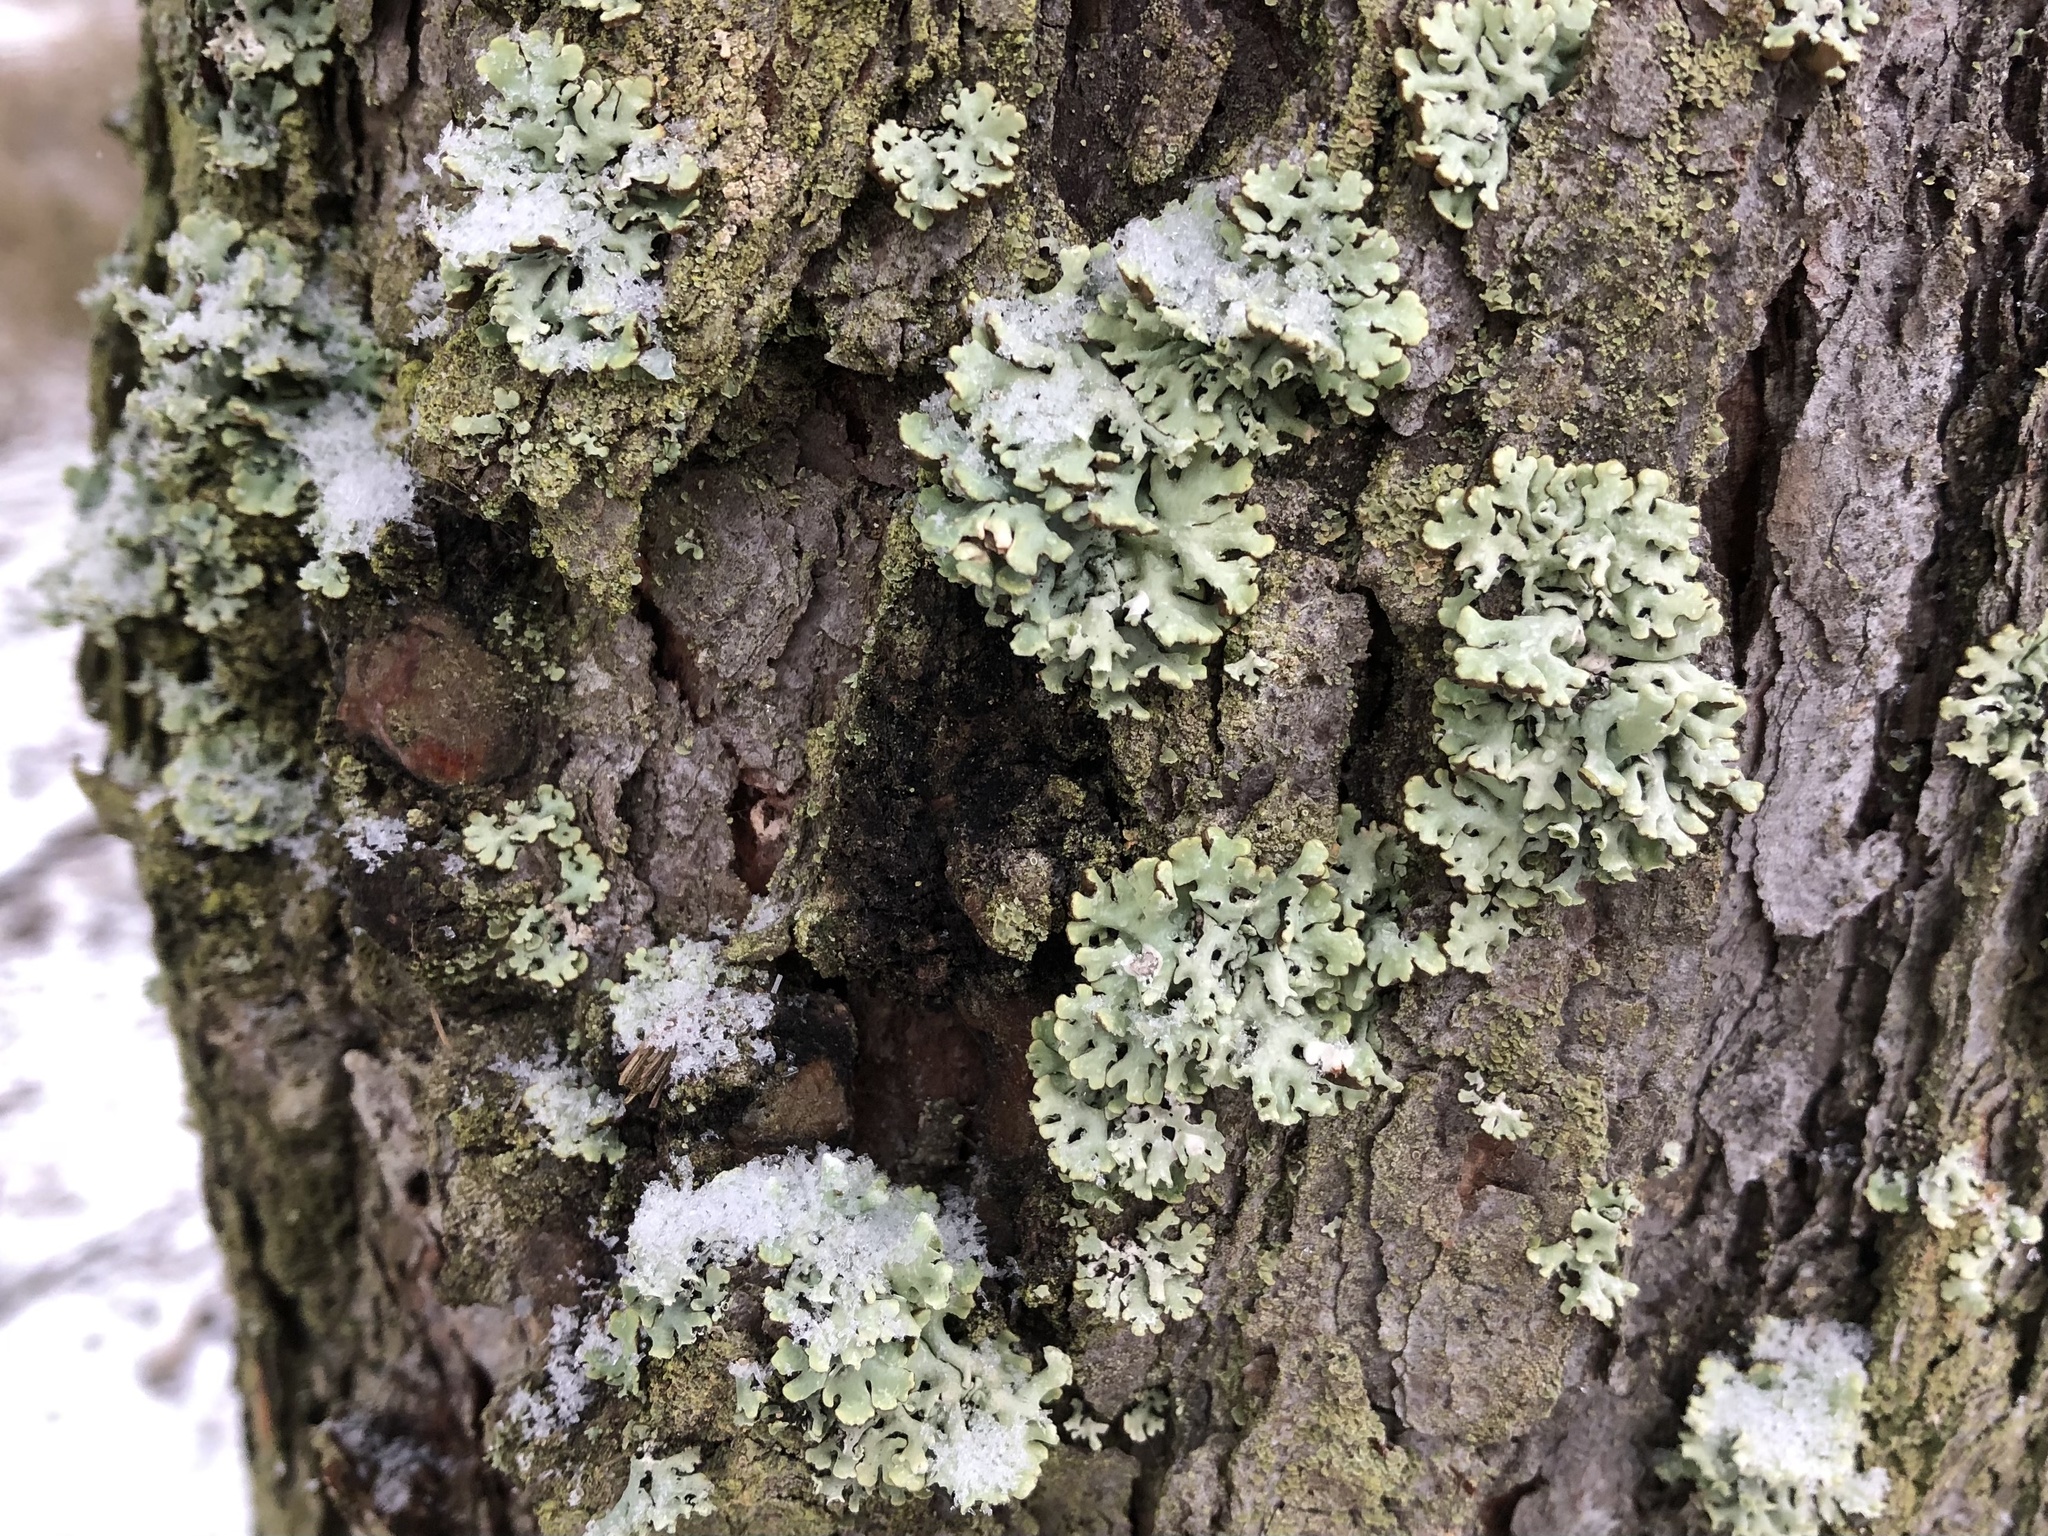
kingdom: Fungi
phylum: Ascomycota
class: Lecanoromycetes
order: Lecanorales
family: Parmeliaceae
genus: Hypogymnia
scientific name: Hypogymnia physodes
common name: Dark crottle
